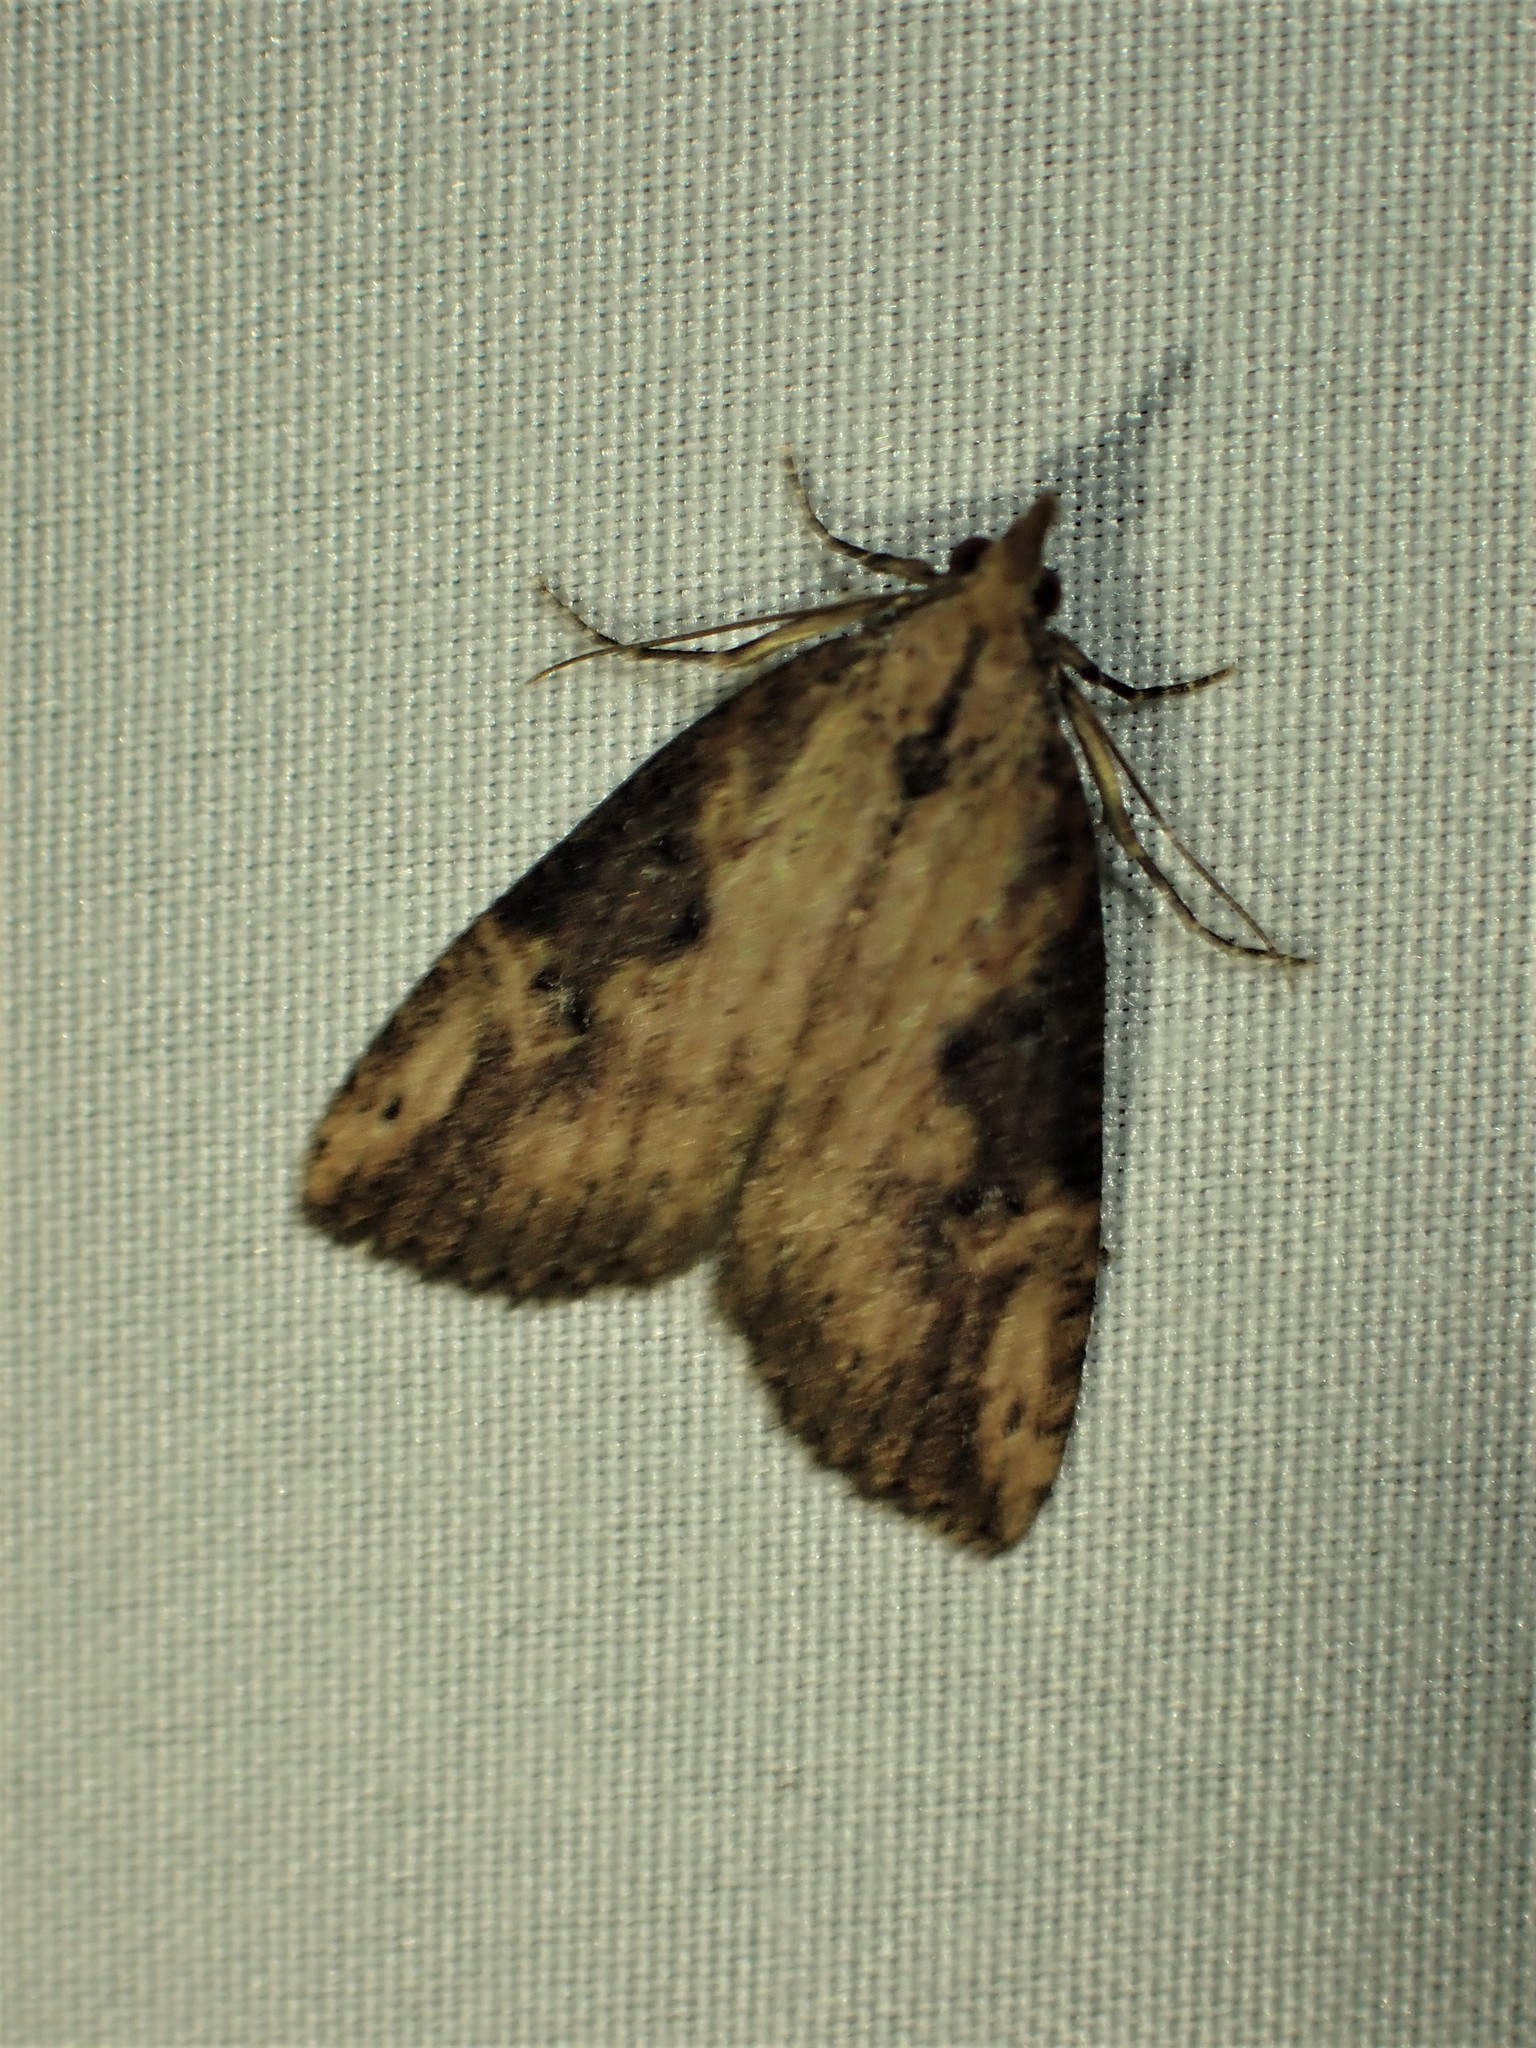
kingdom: Animalia
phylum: Arthropoda
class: Insecta
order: Lepidoptera
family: Erebidae
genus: Hypena
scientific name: Hypena humuli
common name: Hop vine snout
